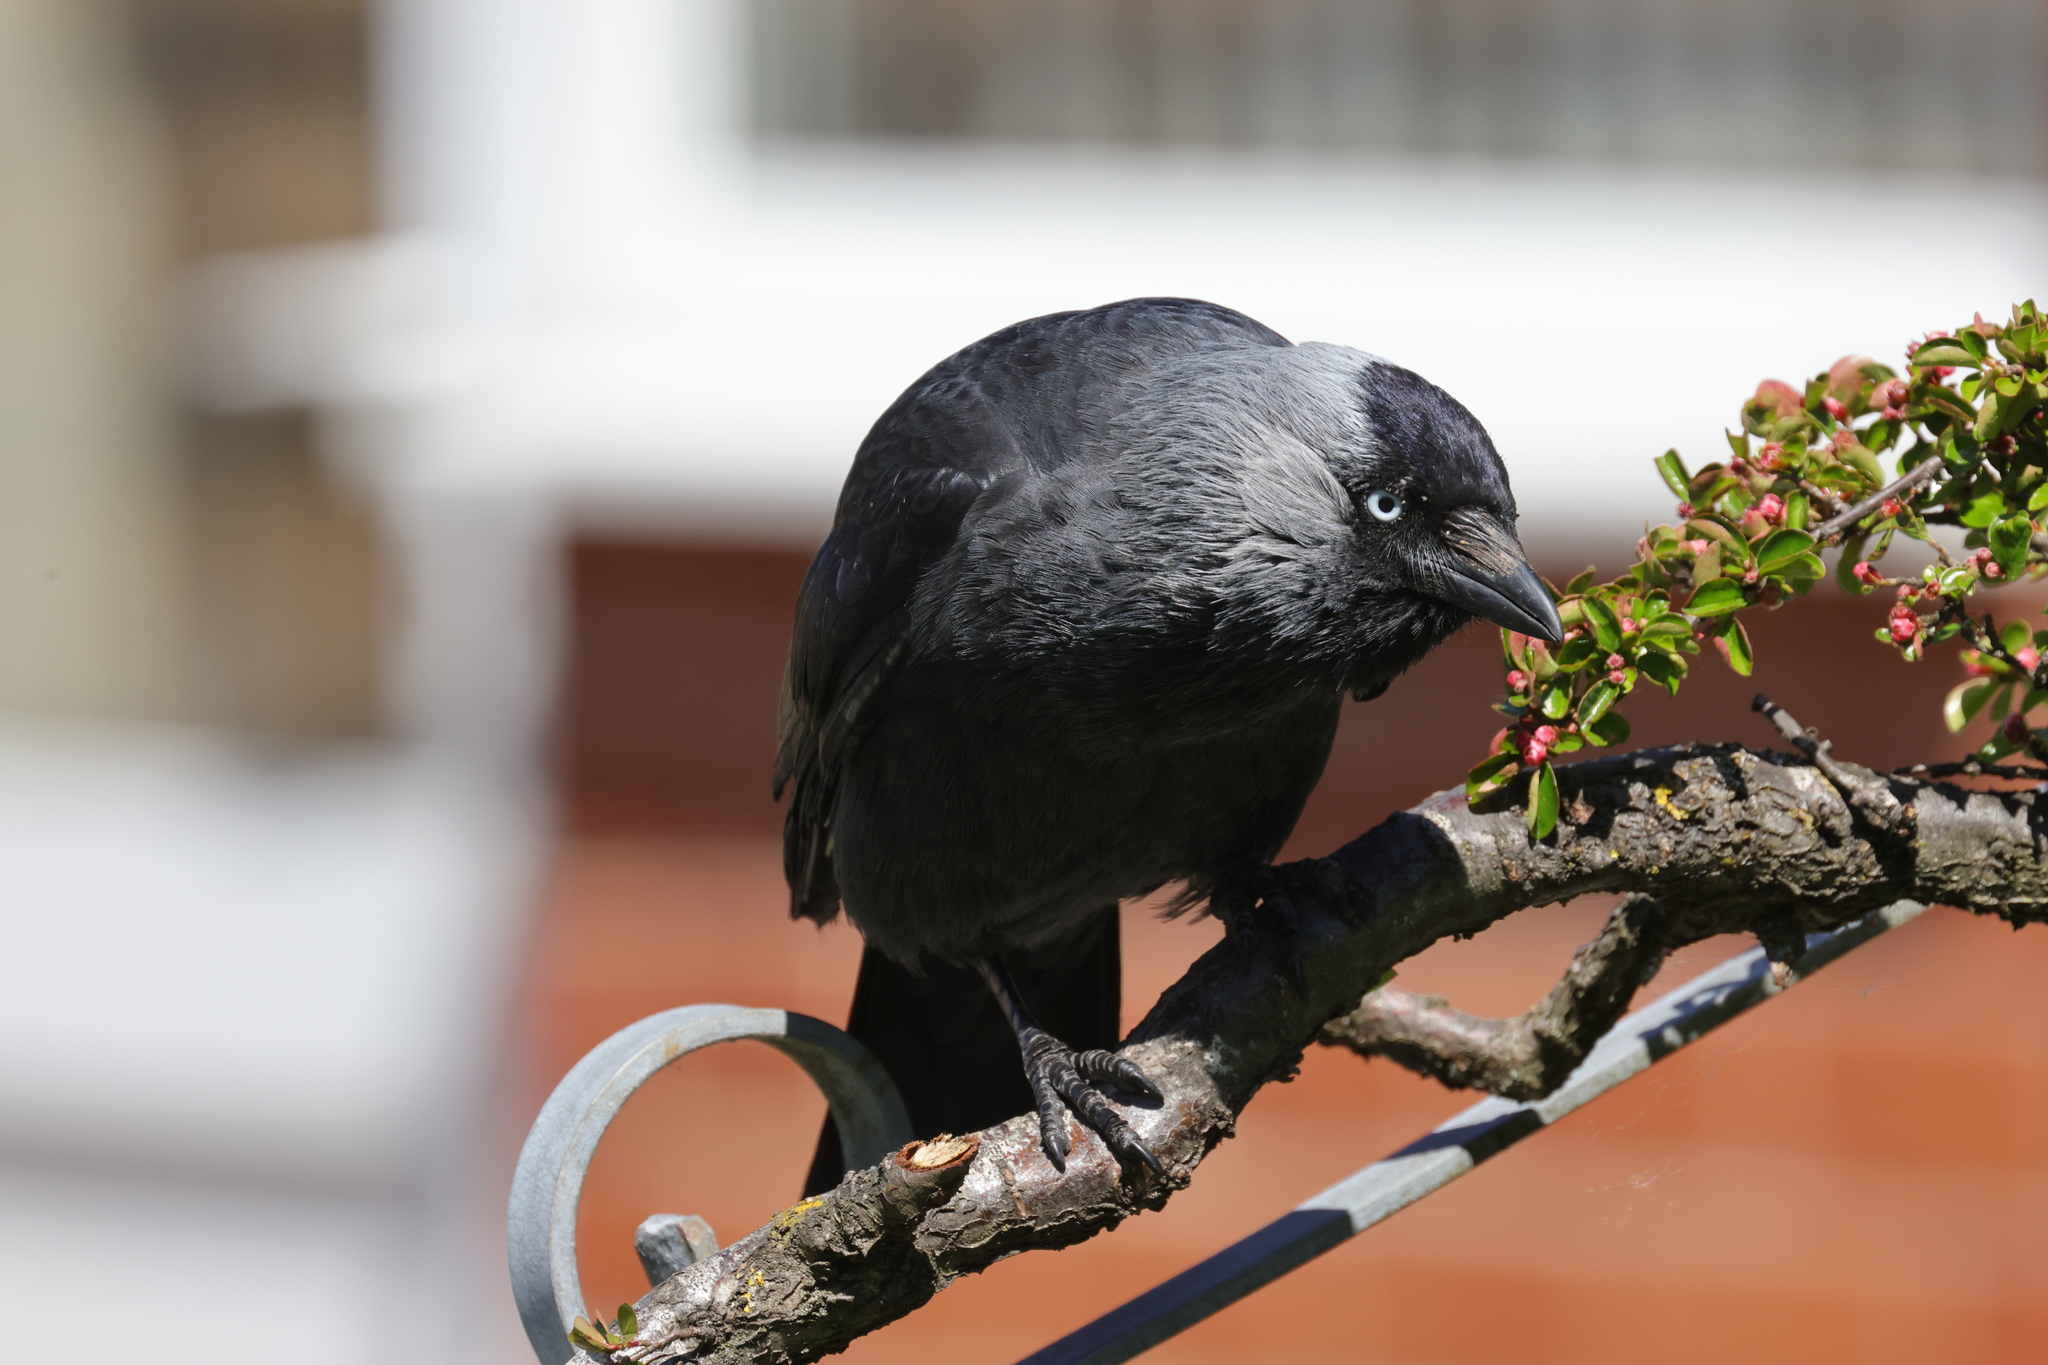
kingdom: Animalia
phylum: Chordata
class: Aves
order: Passeriformes
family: Corvidae
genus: Coloeus
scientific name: Coloeus monedula
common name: Western jackdaw
